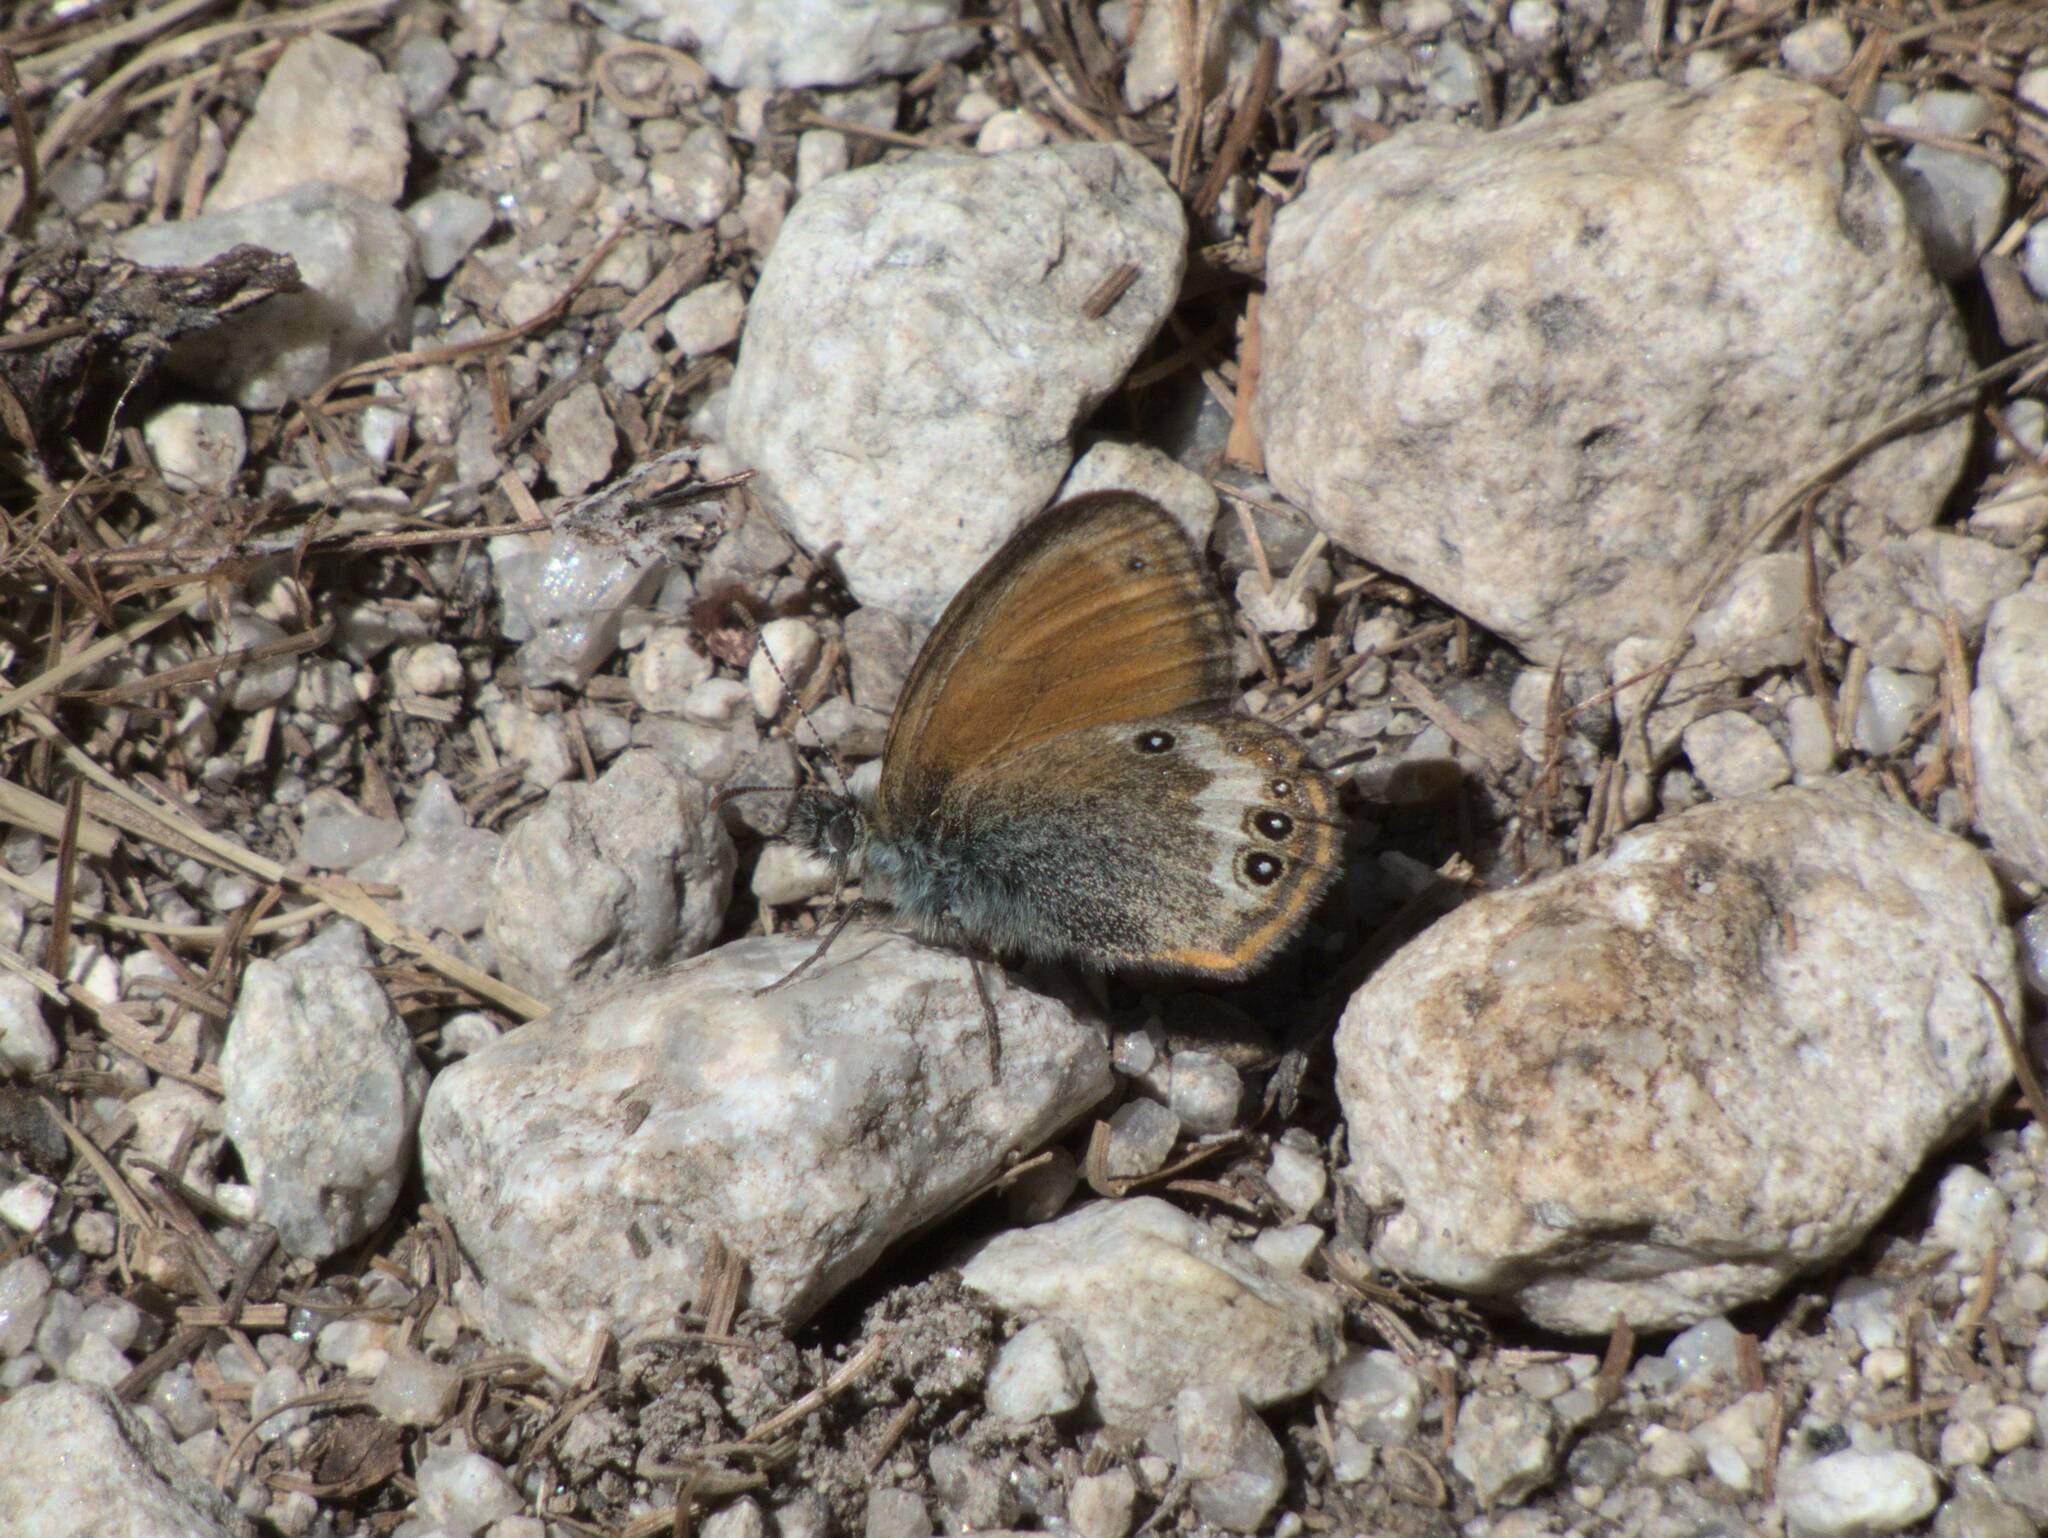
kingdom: Animalia
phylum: Arthropoda
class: Insecta
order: Lepidoptera
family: Nymphalidae
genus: Coenonympha
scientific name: Coenonympha arcania
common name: Pearly heath
